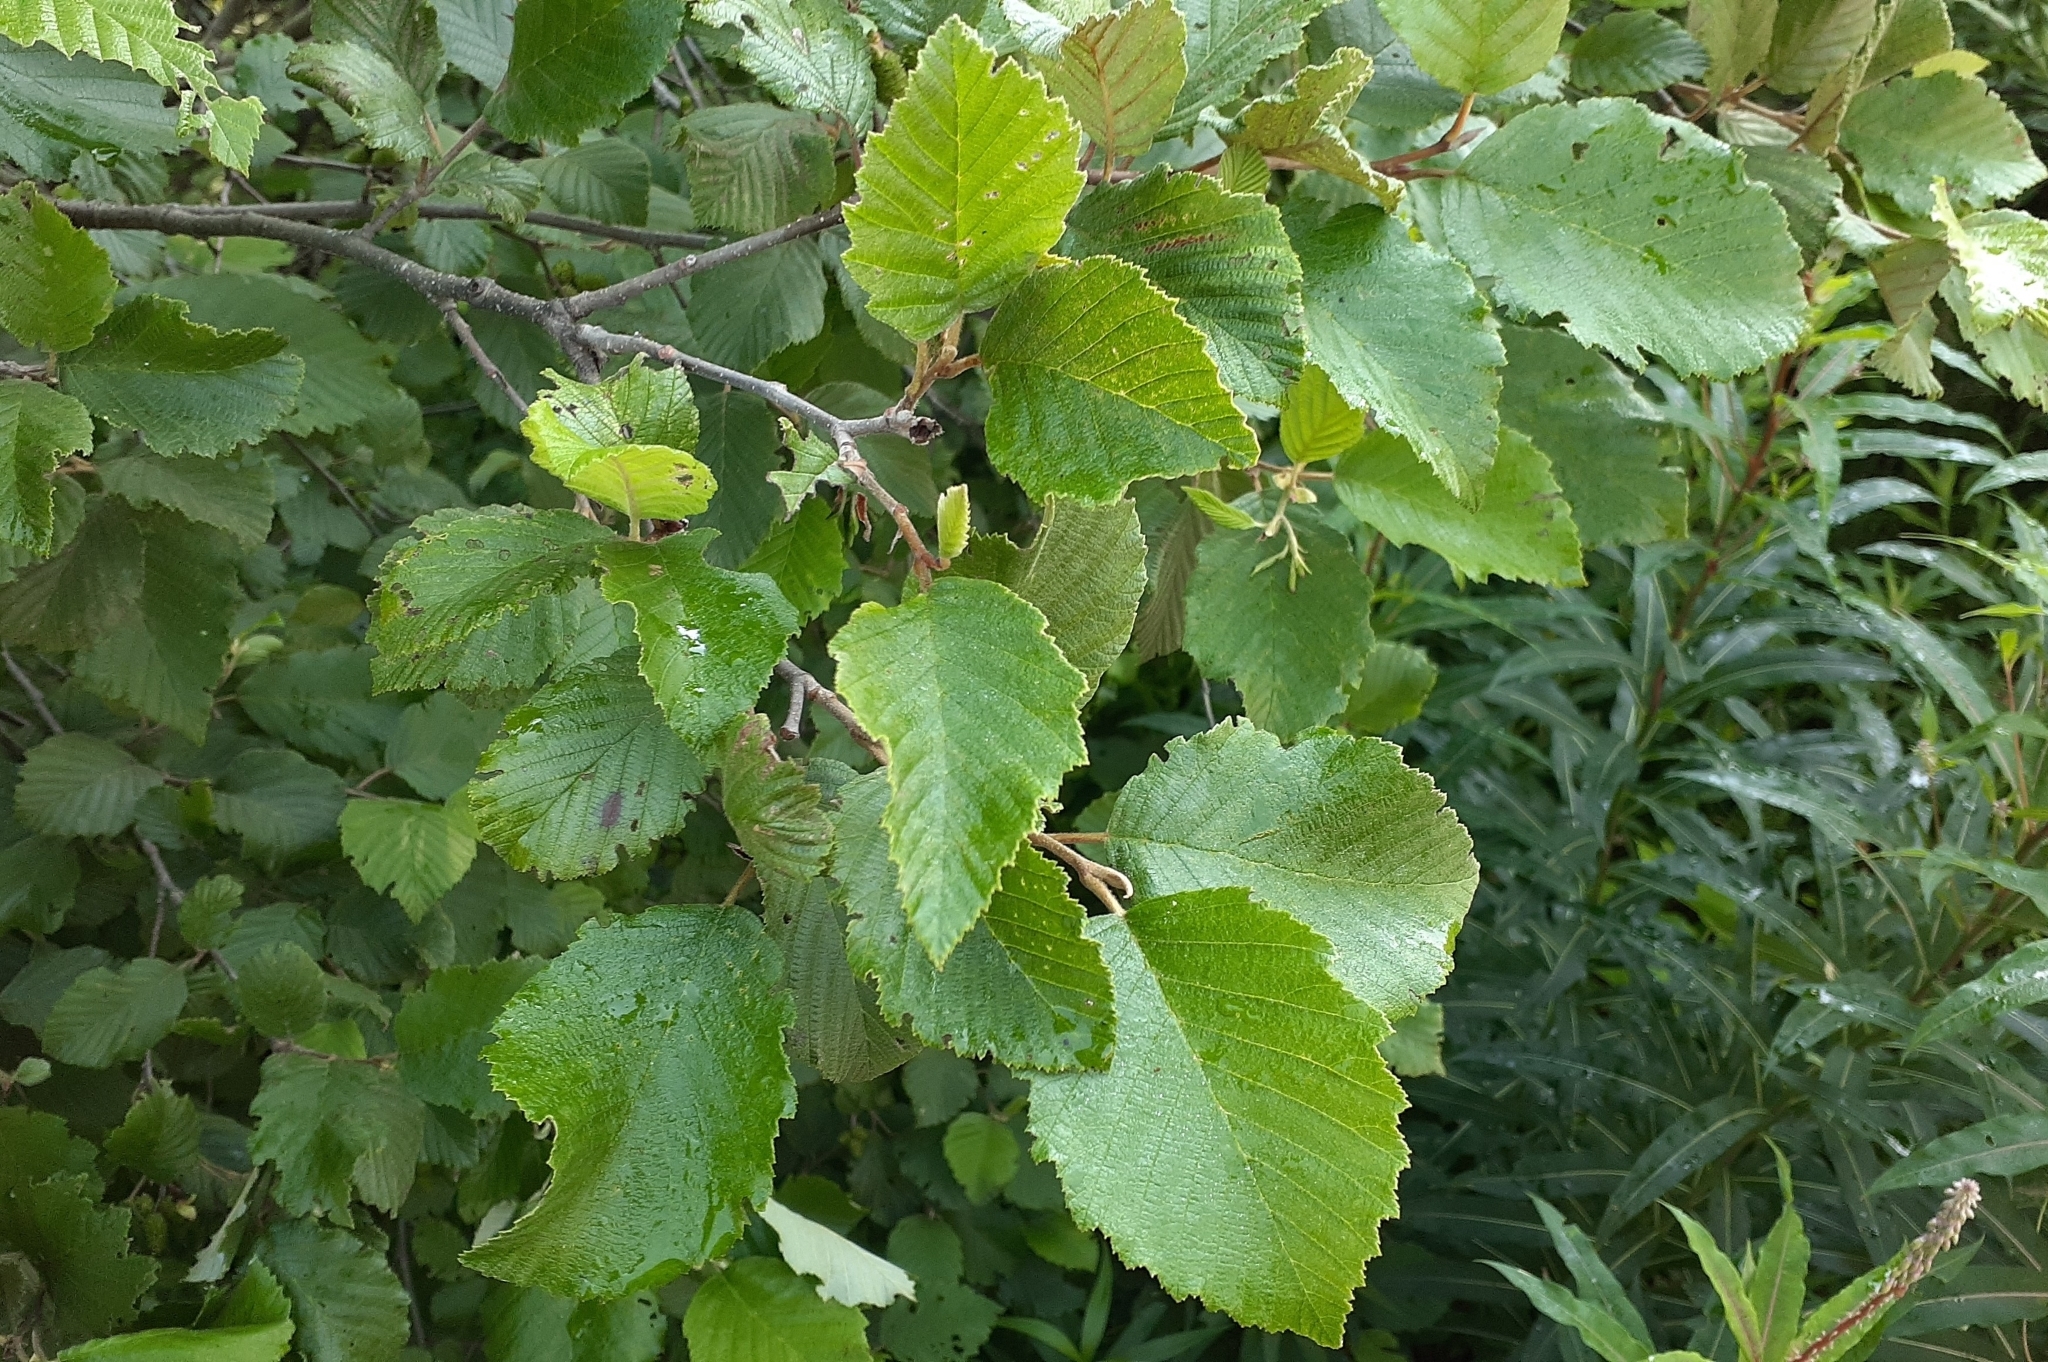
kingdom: Plantae
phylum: Tracheophyta
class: Magnoliopsida
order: Fagales
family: Betulaceae
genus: Alnus
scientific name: Alnus incana
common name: Grey alder
